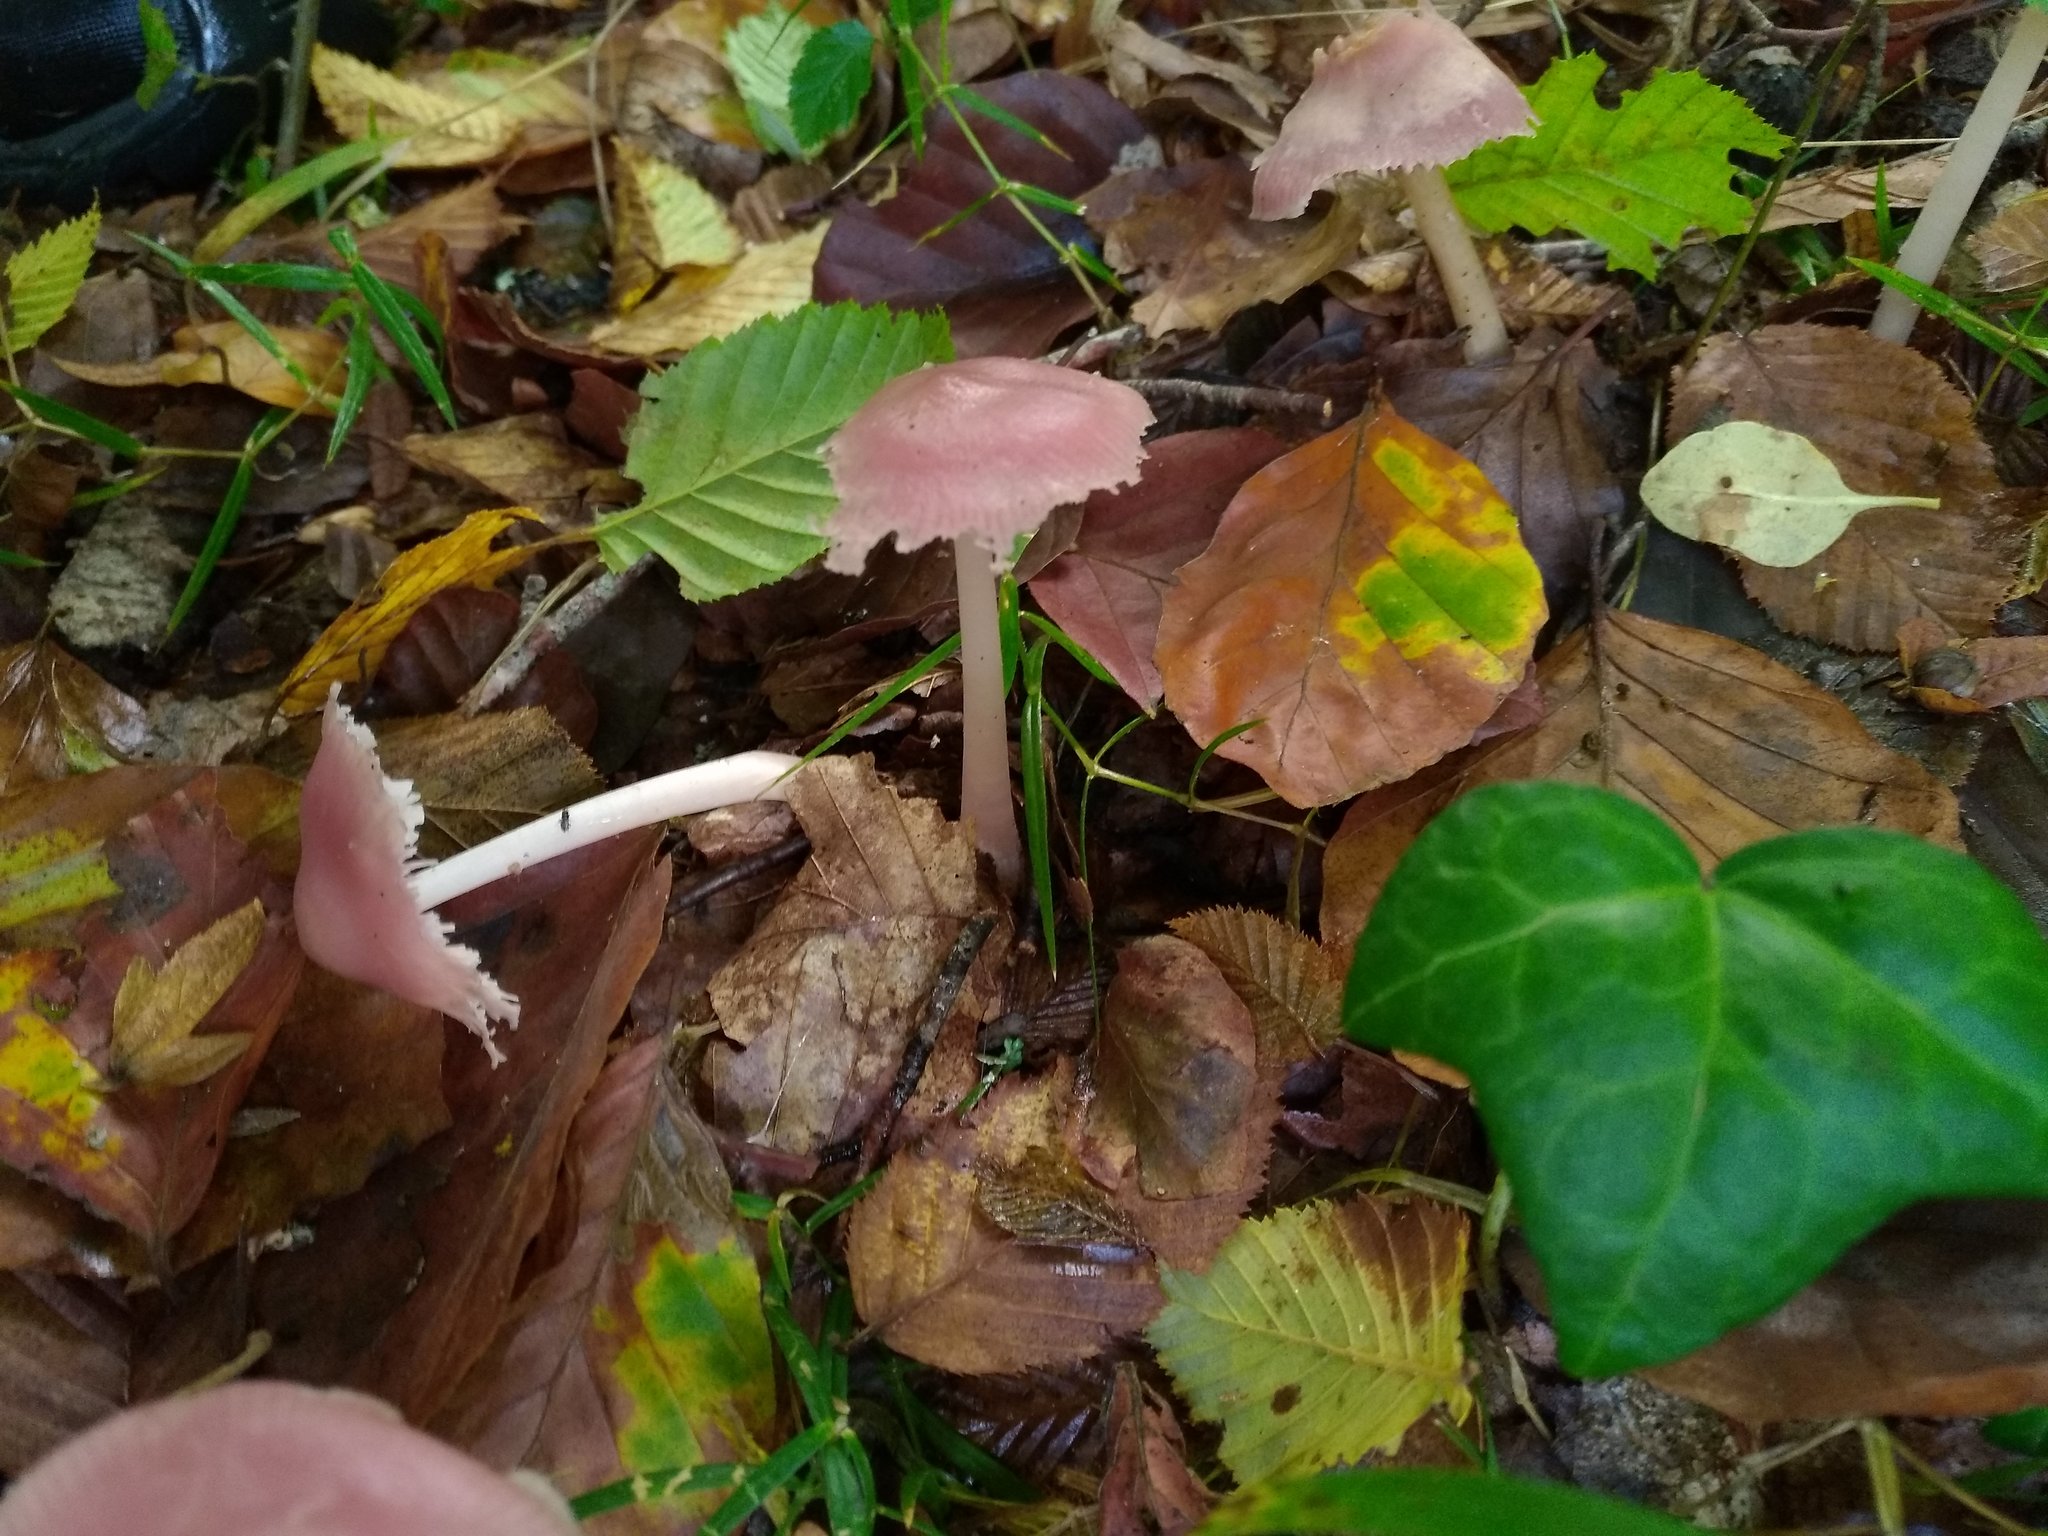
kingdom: Fungi
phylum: Basidiomycota
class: Agaricomycetes
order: Agaricales
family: Mycenaceae
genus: Mycena
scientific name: Mycena rosea
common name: Rosy bonnet
